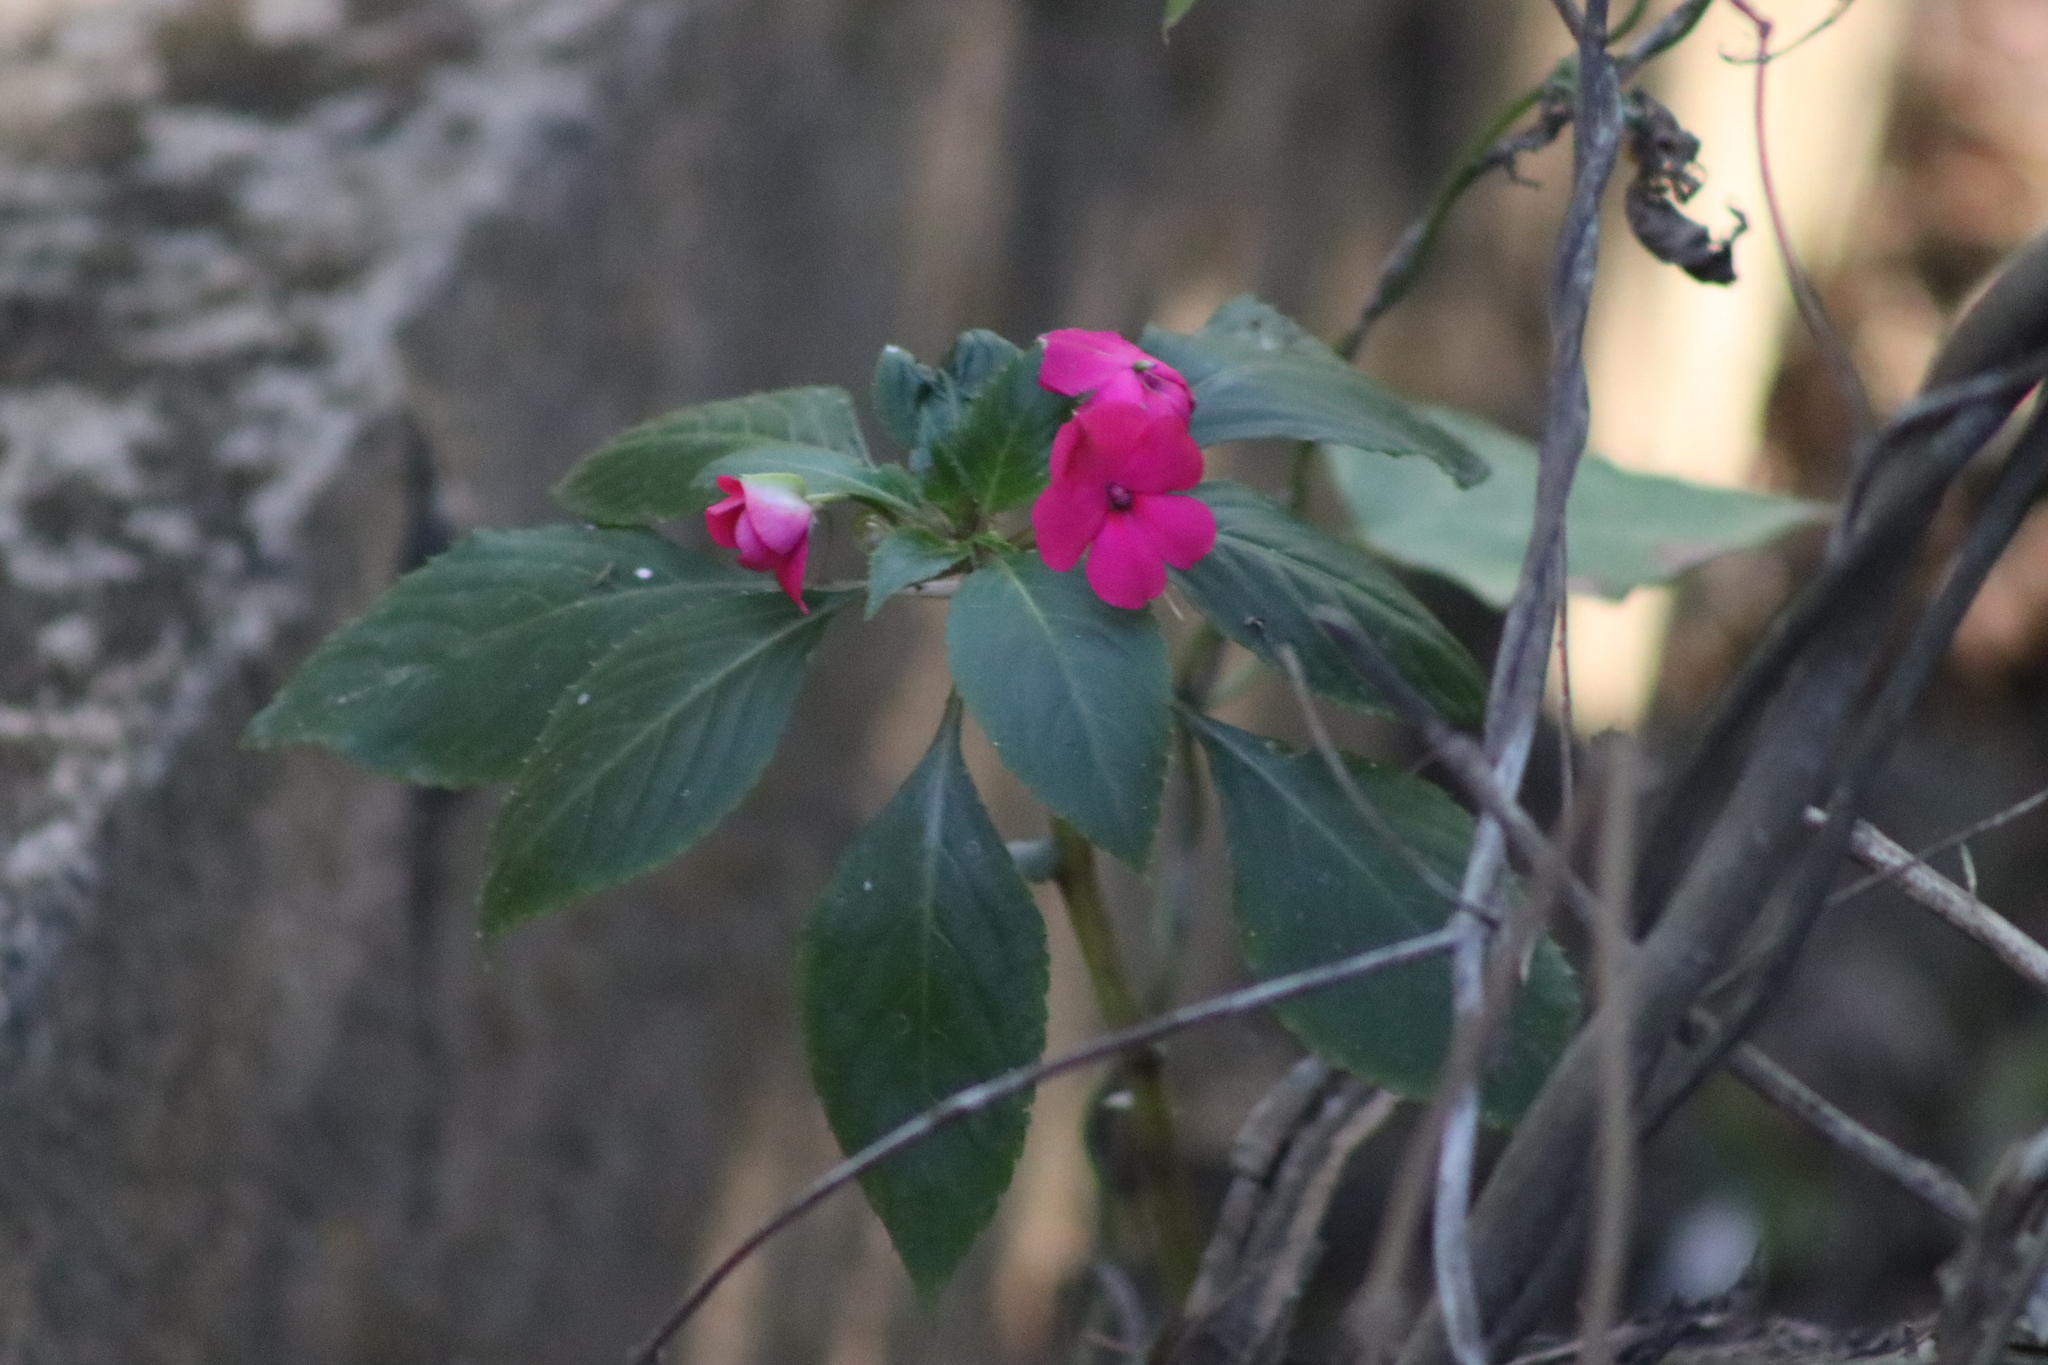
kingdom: Plantae
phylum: Tracheophyta
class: Magnoliopsida
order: Ericales
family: Balsaminaceae
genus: Impatiens
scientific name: Impatiens walleriana
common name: Buzzy lizzy
